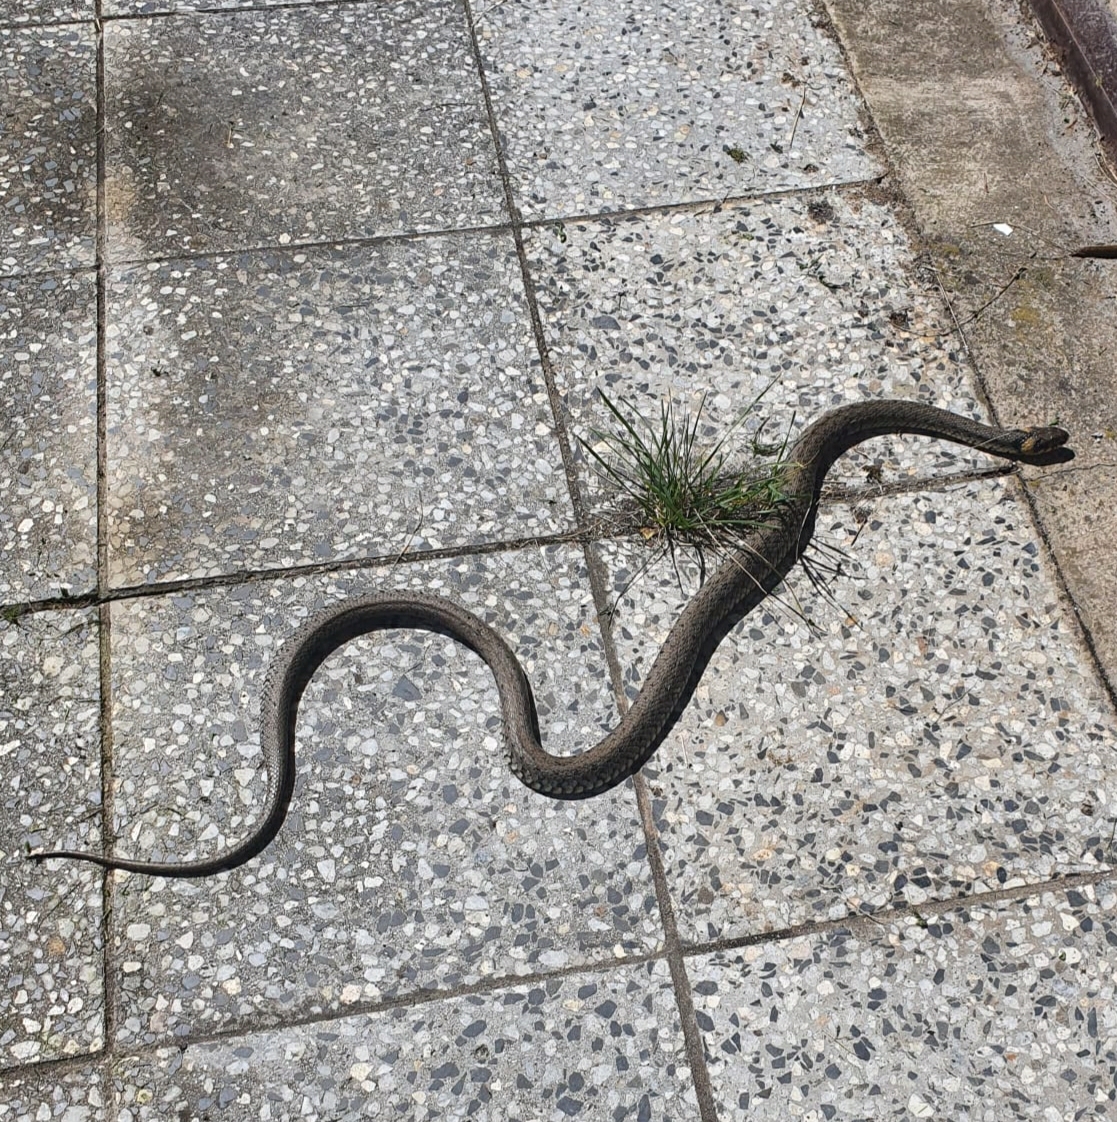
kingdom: Animalia
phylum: Chordata
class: Squamata
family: Colubridae
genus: Natrix
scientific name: Natrix natrix
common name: Grass snake
